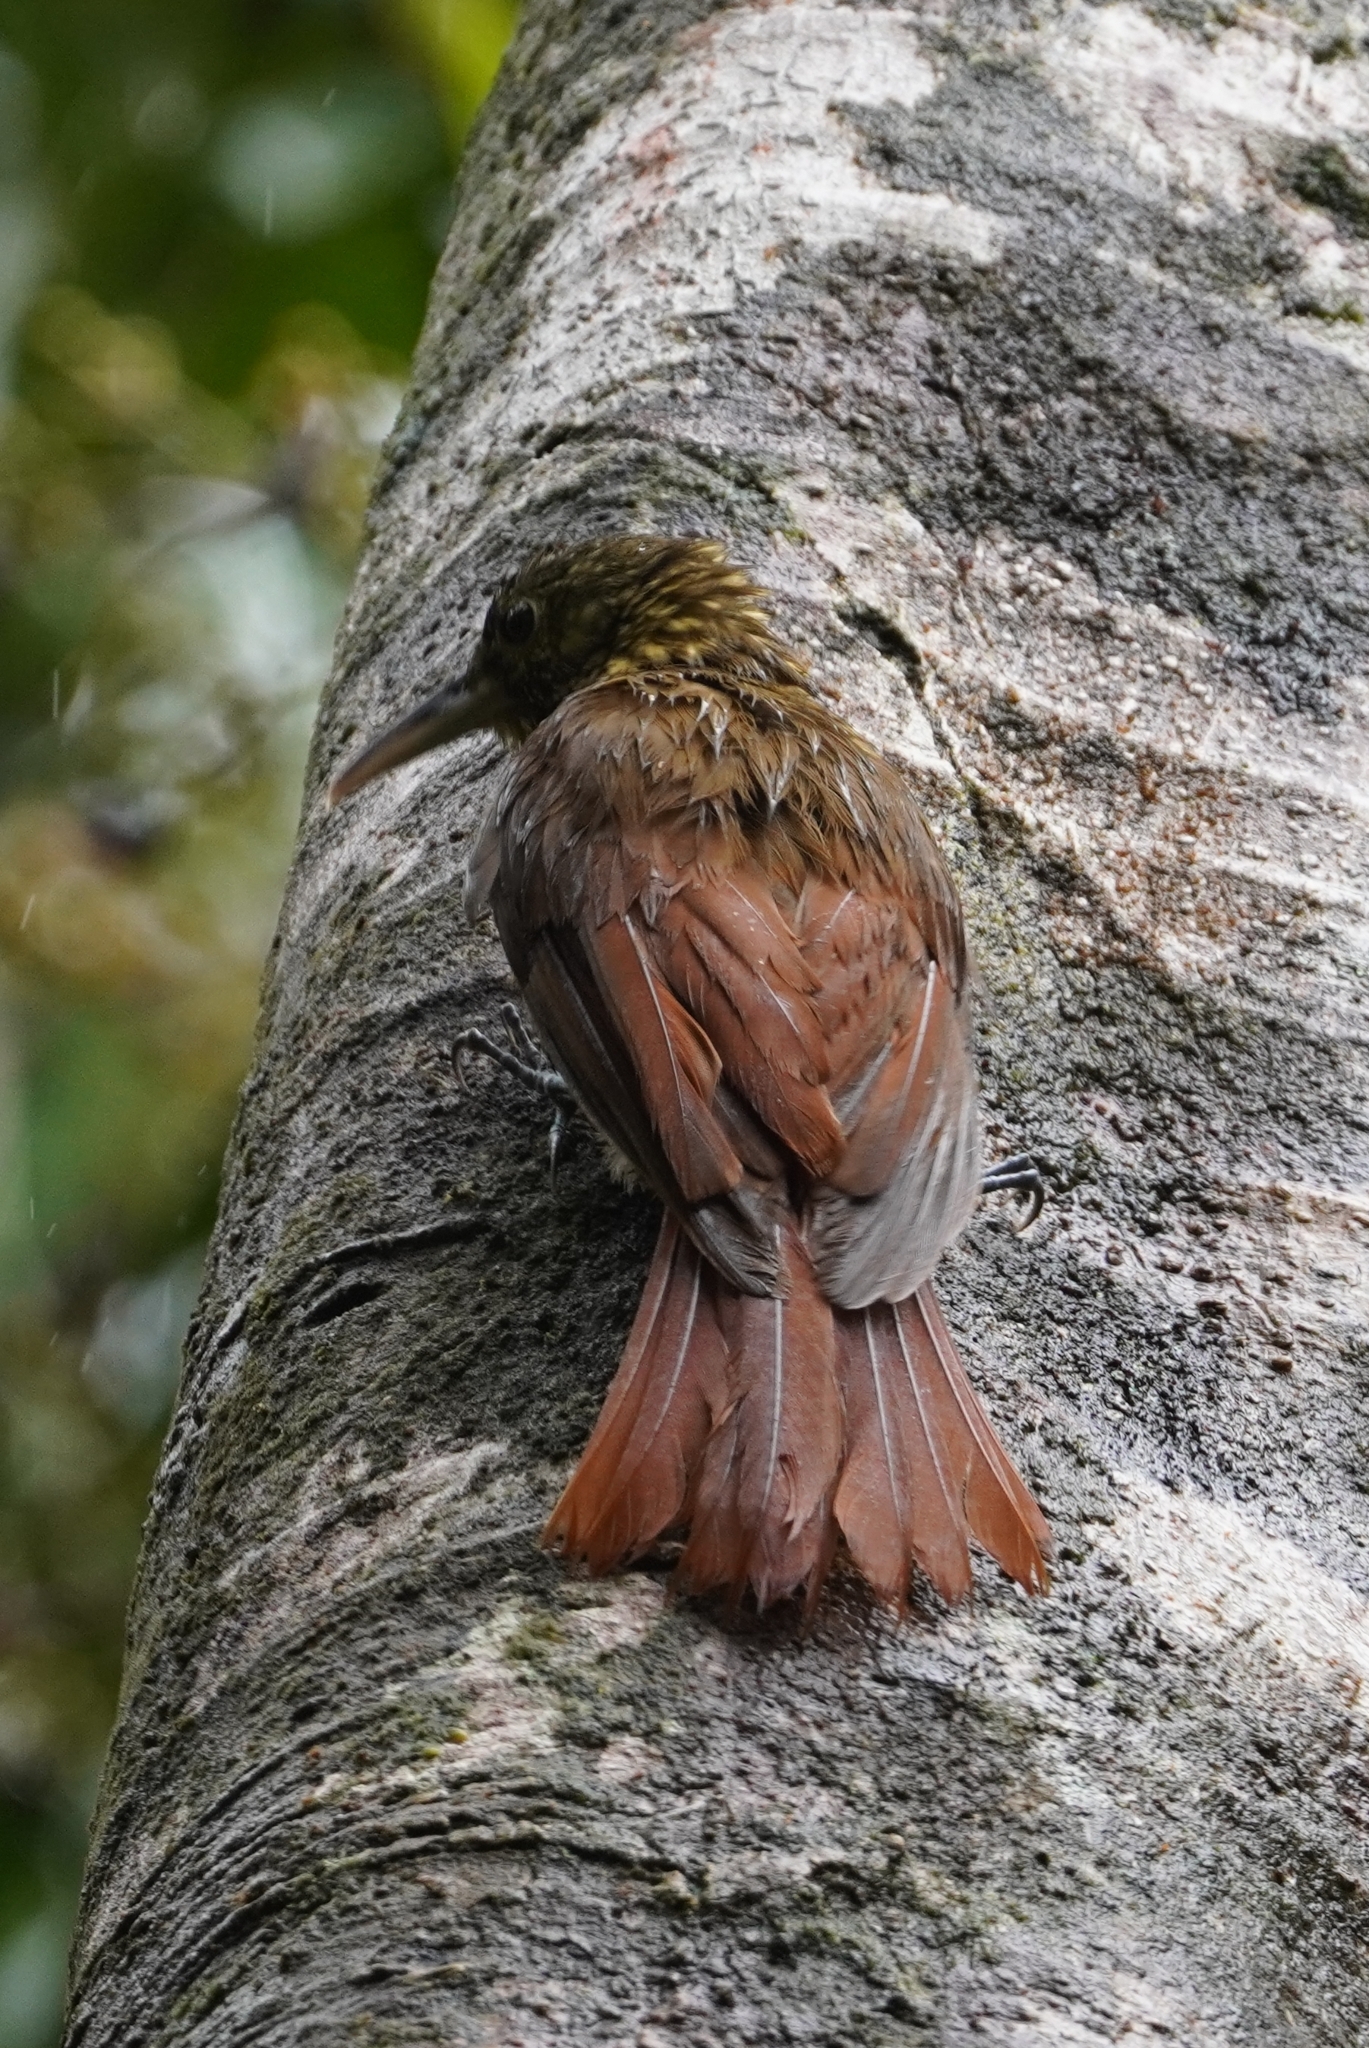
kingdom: Animalia
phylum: Chordata
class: Aves
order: Passeriformes
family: Furnariidae
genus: Xiphorhynchus
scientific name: Xiphorhynchus erythropygius
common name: Spotted woodcreeper
